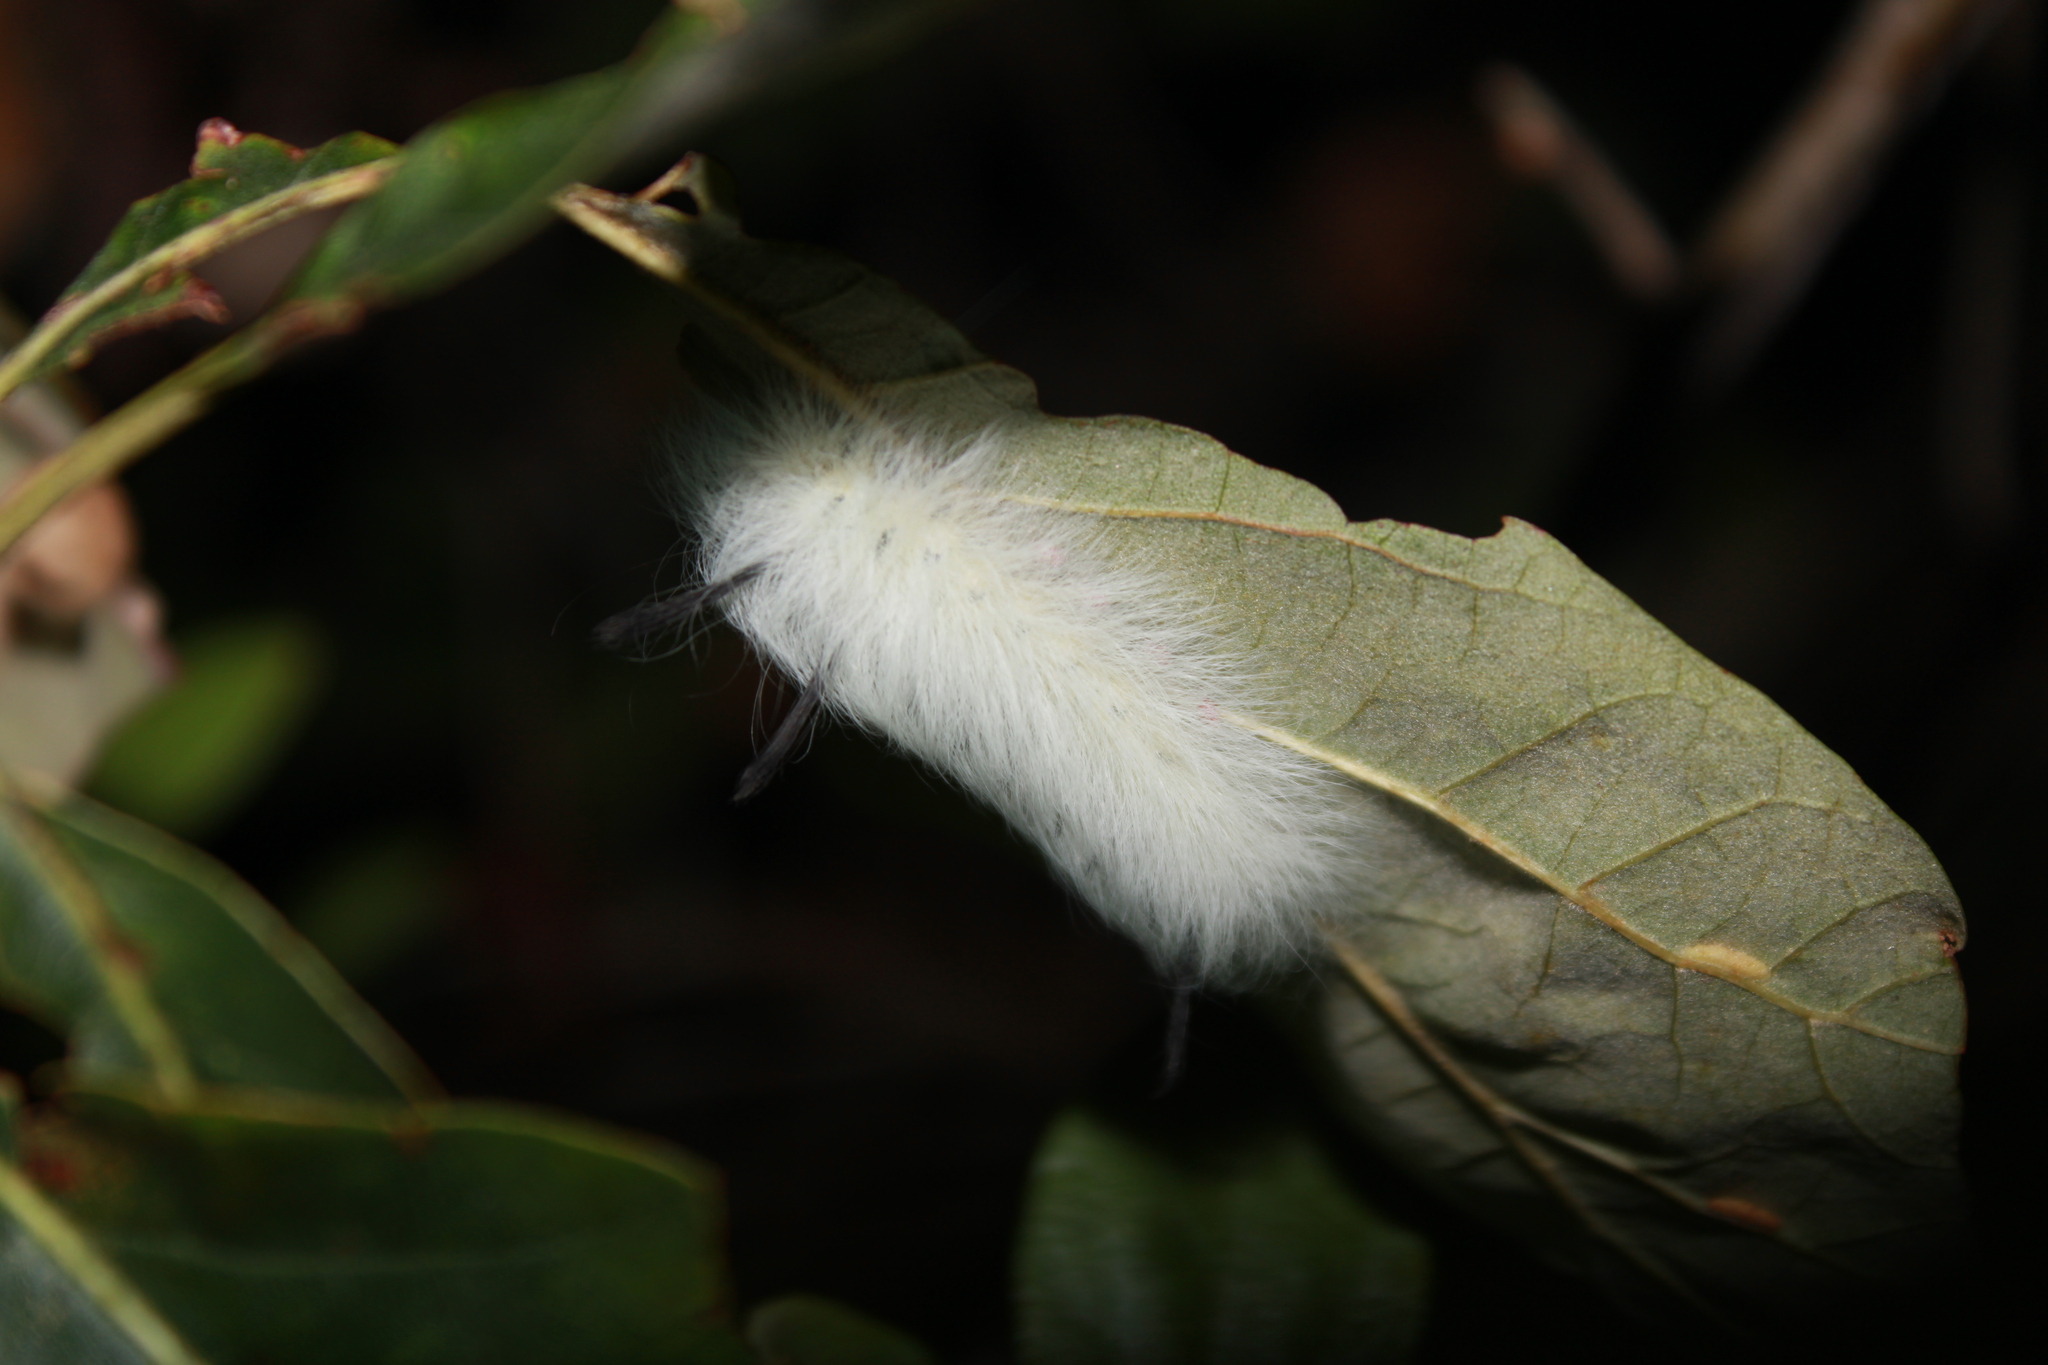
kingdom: Animalia
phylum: Arthropoda
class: Insecta
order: Lepidoptera
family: Apatelodidae
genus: Hygrochroa
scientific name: Hygrochroa Apatelodes torrefacta
